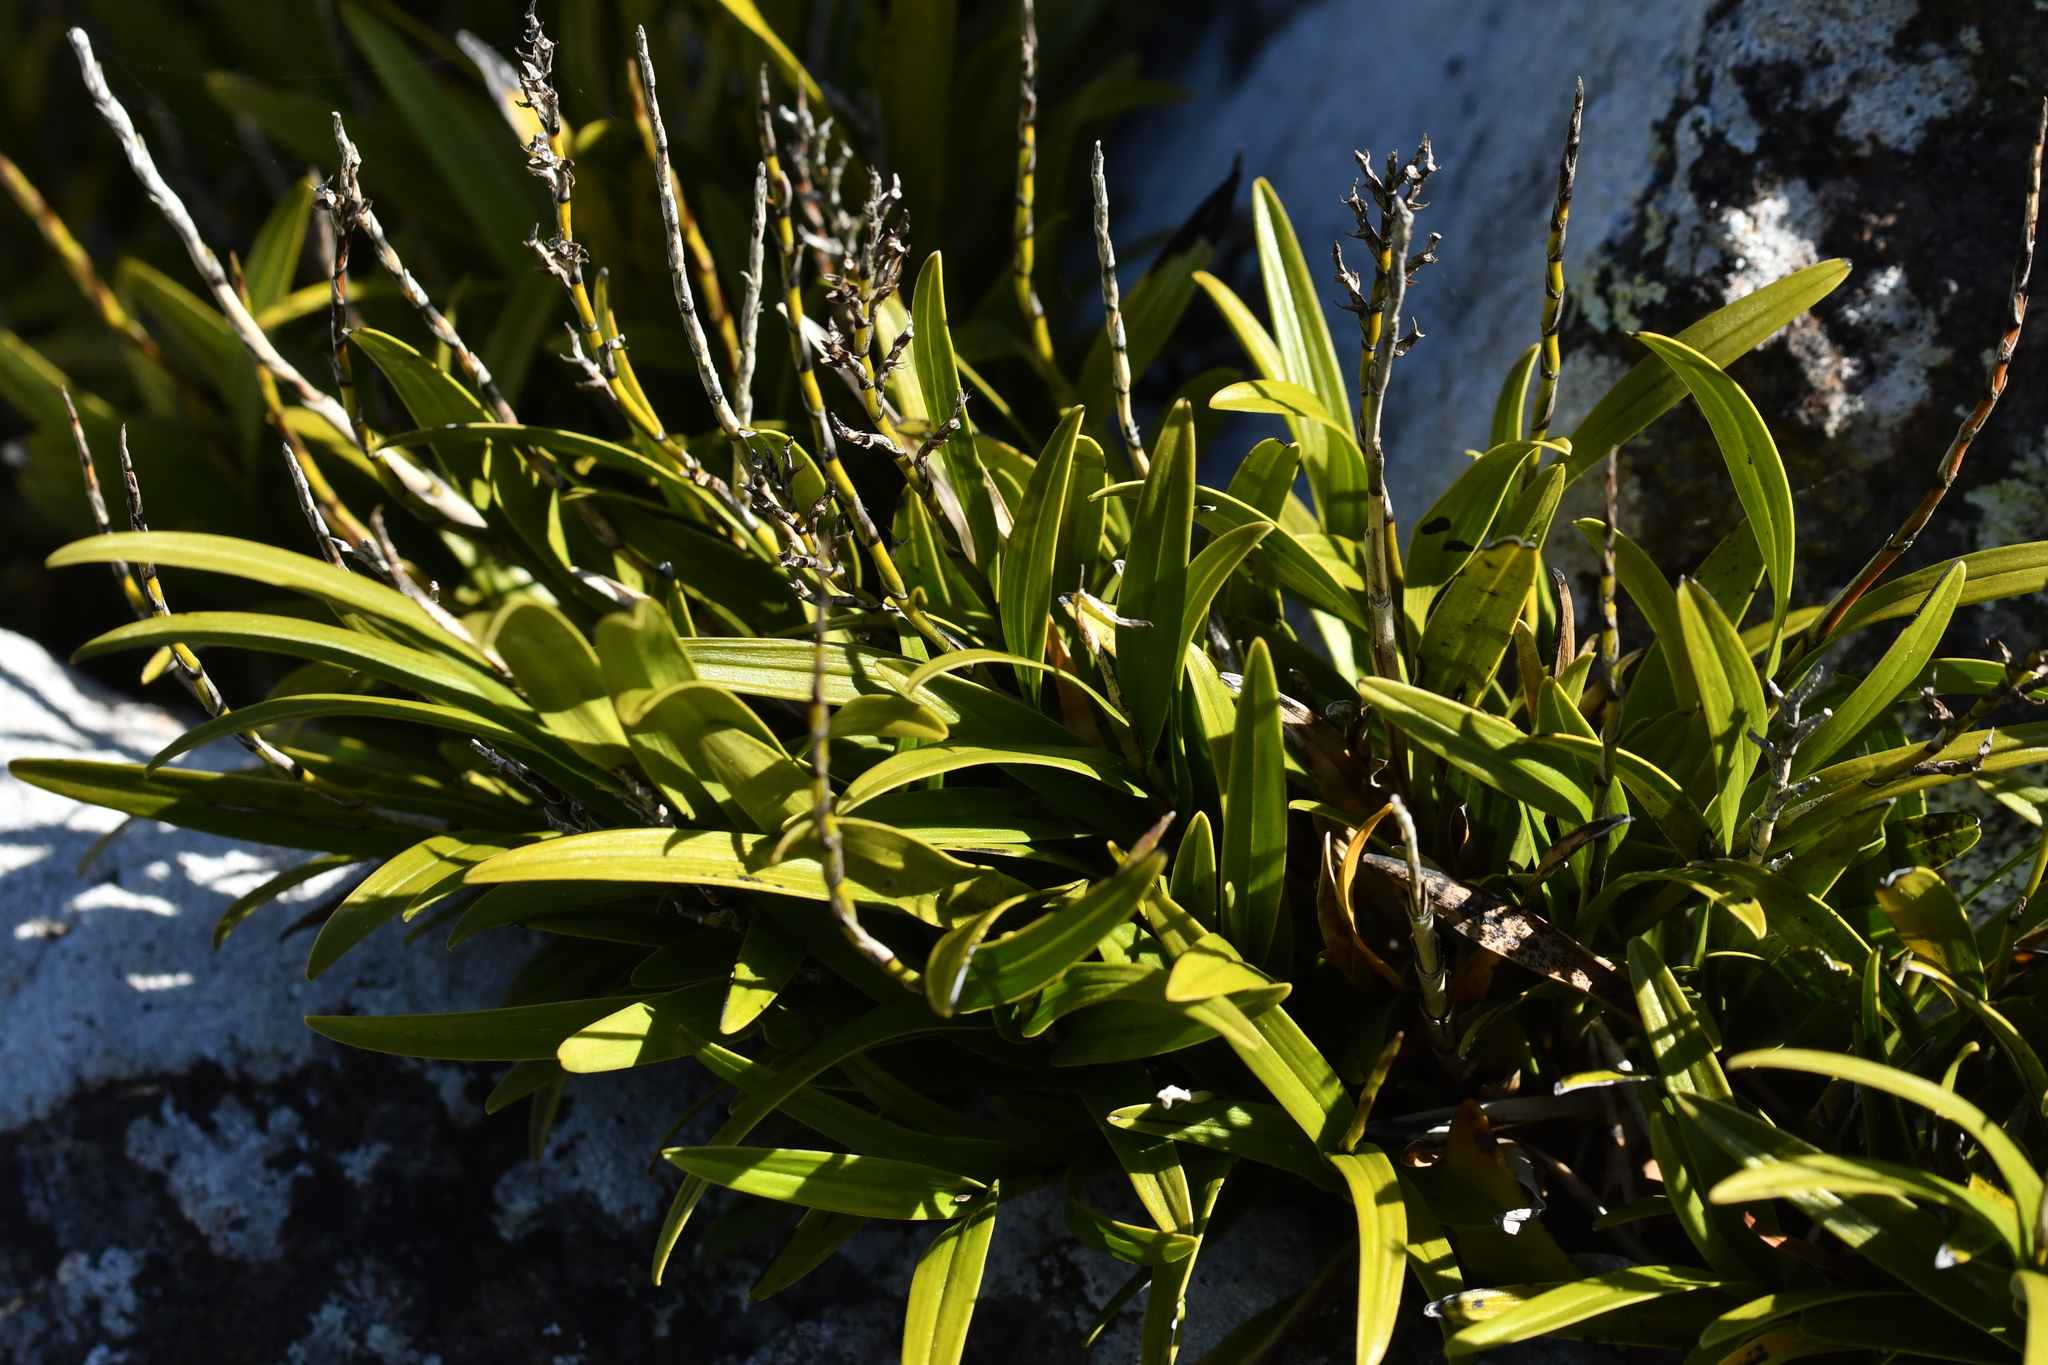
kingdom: Plantae
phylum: Tracheophyta
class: Liliopsida
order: Asparagales
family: Orchidaceae
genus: Earina
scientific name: Earina autumnalis
